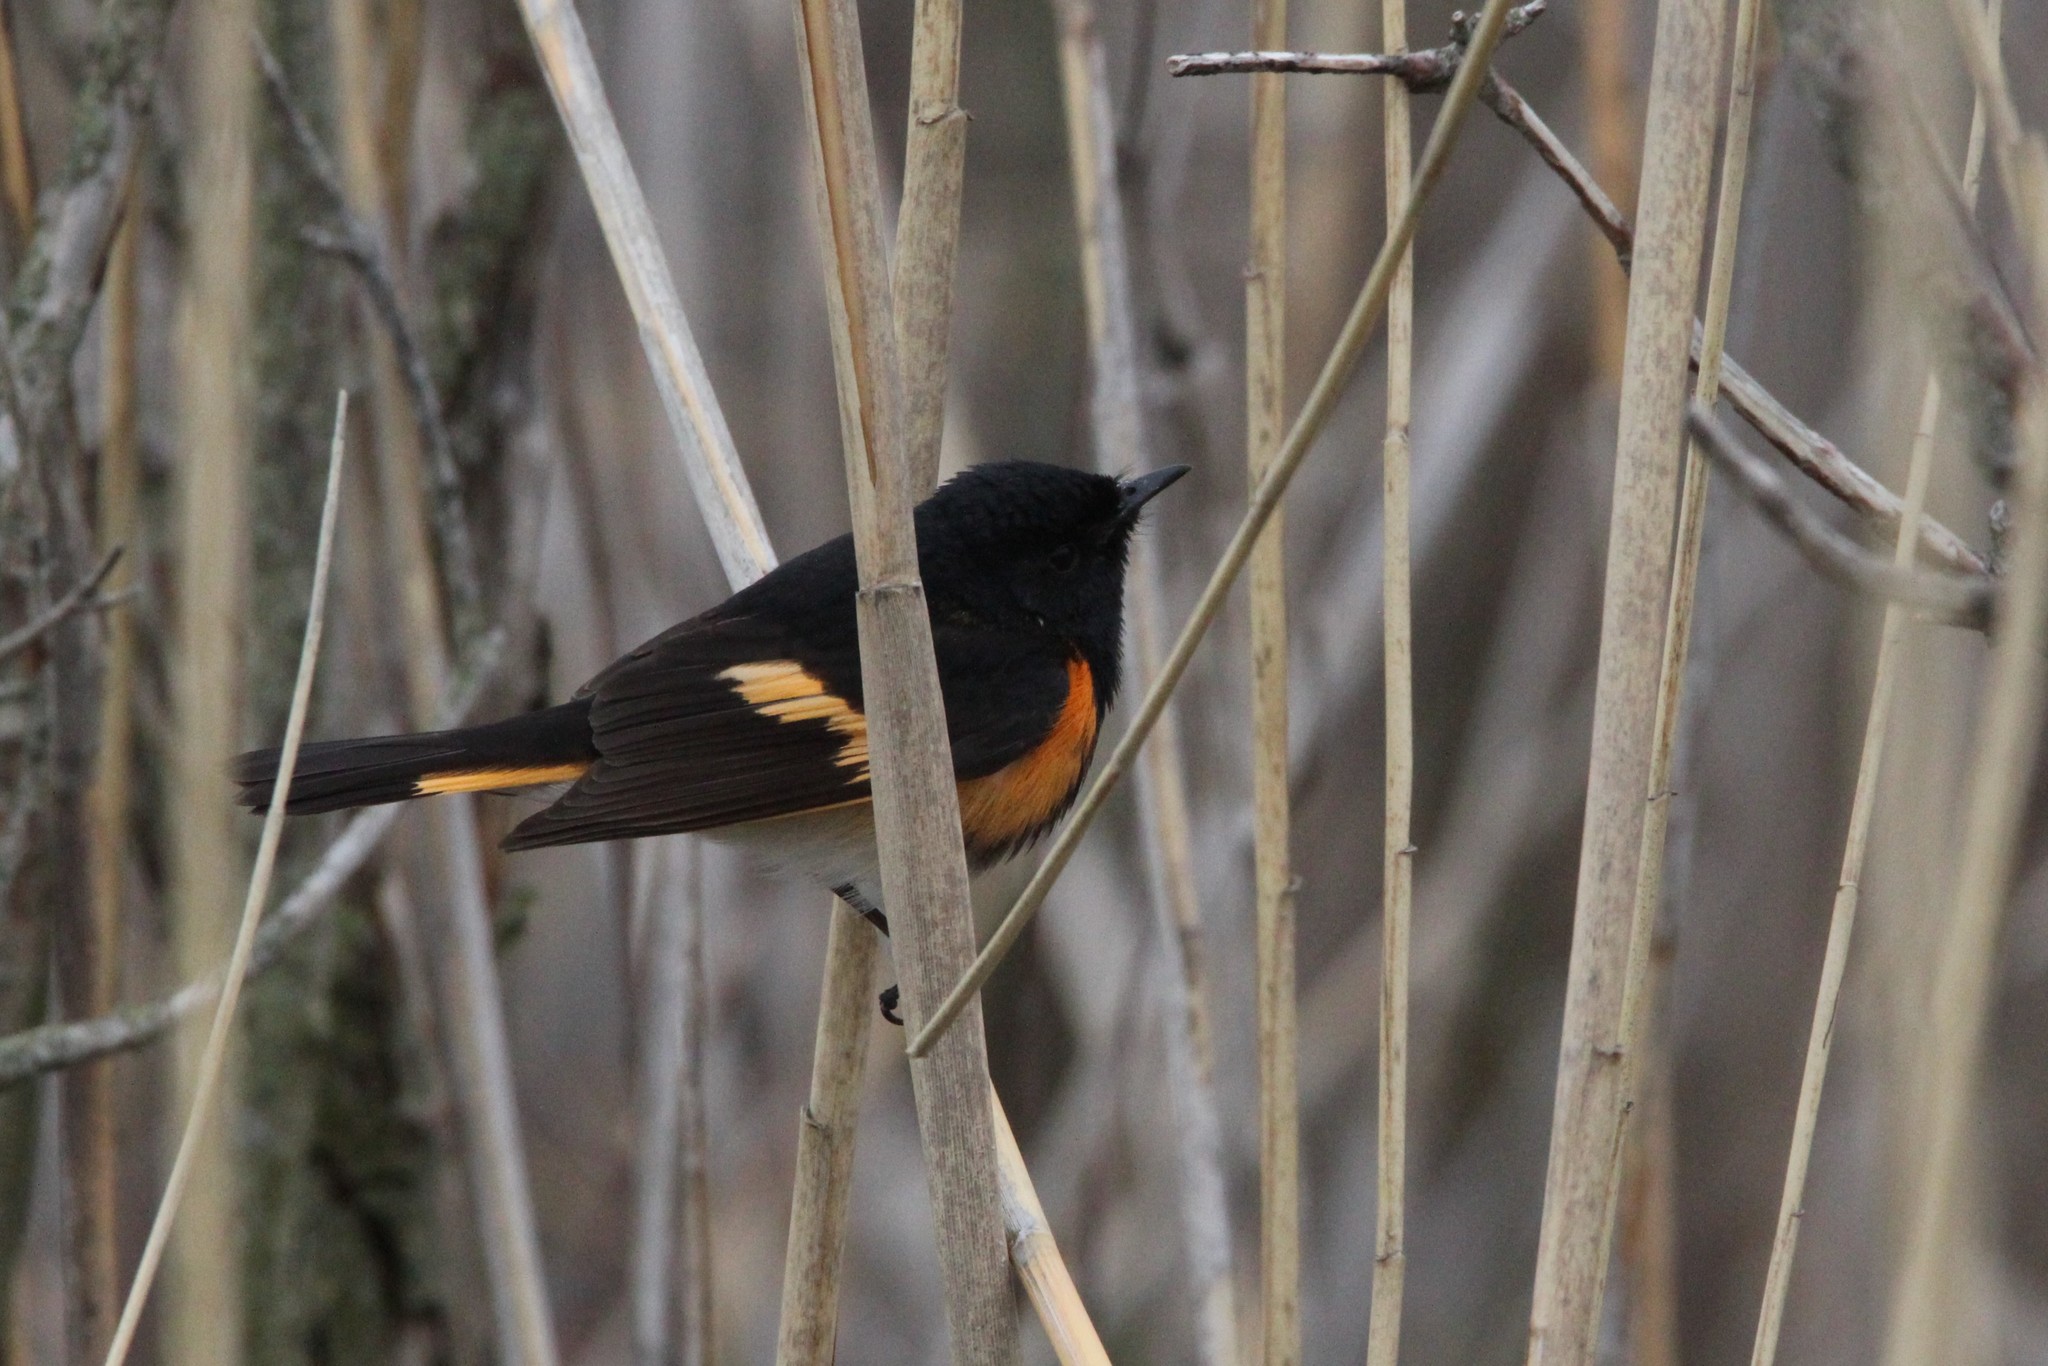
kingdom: Animalia
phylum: Chordata
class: Aves
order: Passeriformes
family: Parulidae
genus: Setophaga
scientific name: Setophaga ruticilla
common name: American redstart
